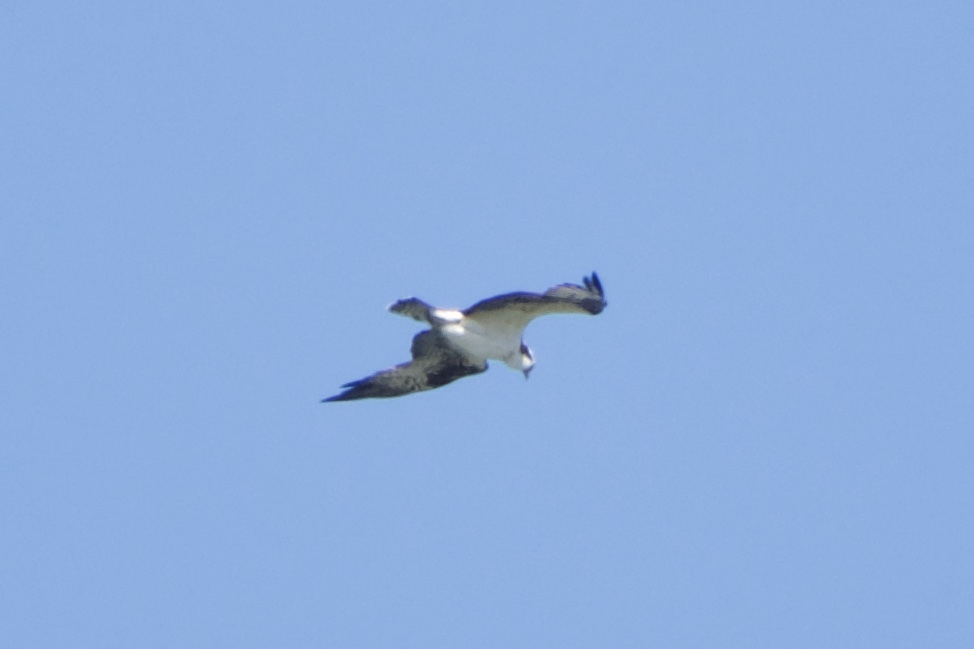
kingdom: Animalia
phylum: Chordata
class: Aves
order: Accipitriformes
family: Pandionidae
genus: Pandion
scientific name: Pandion haliaetus
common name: Osprey
